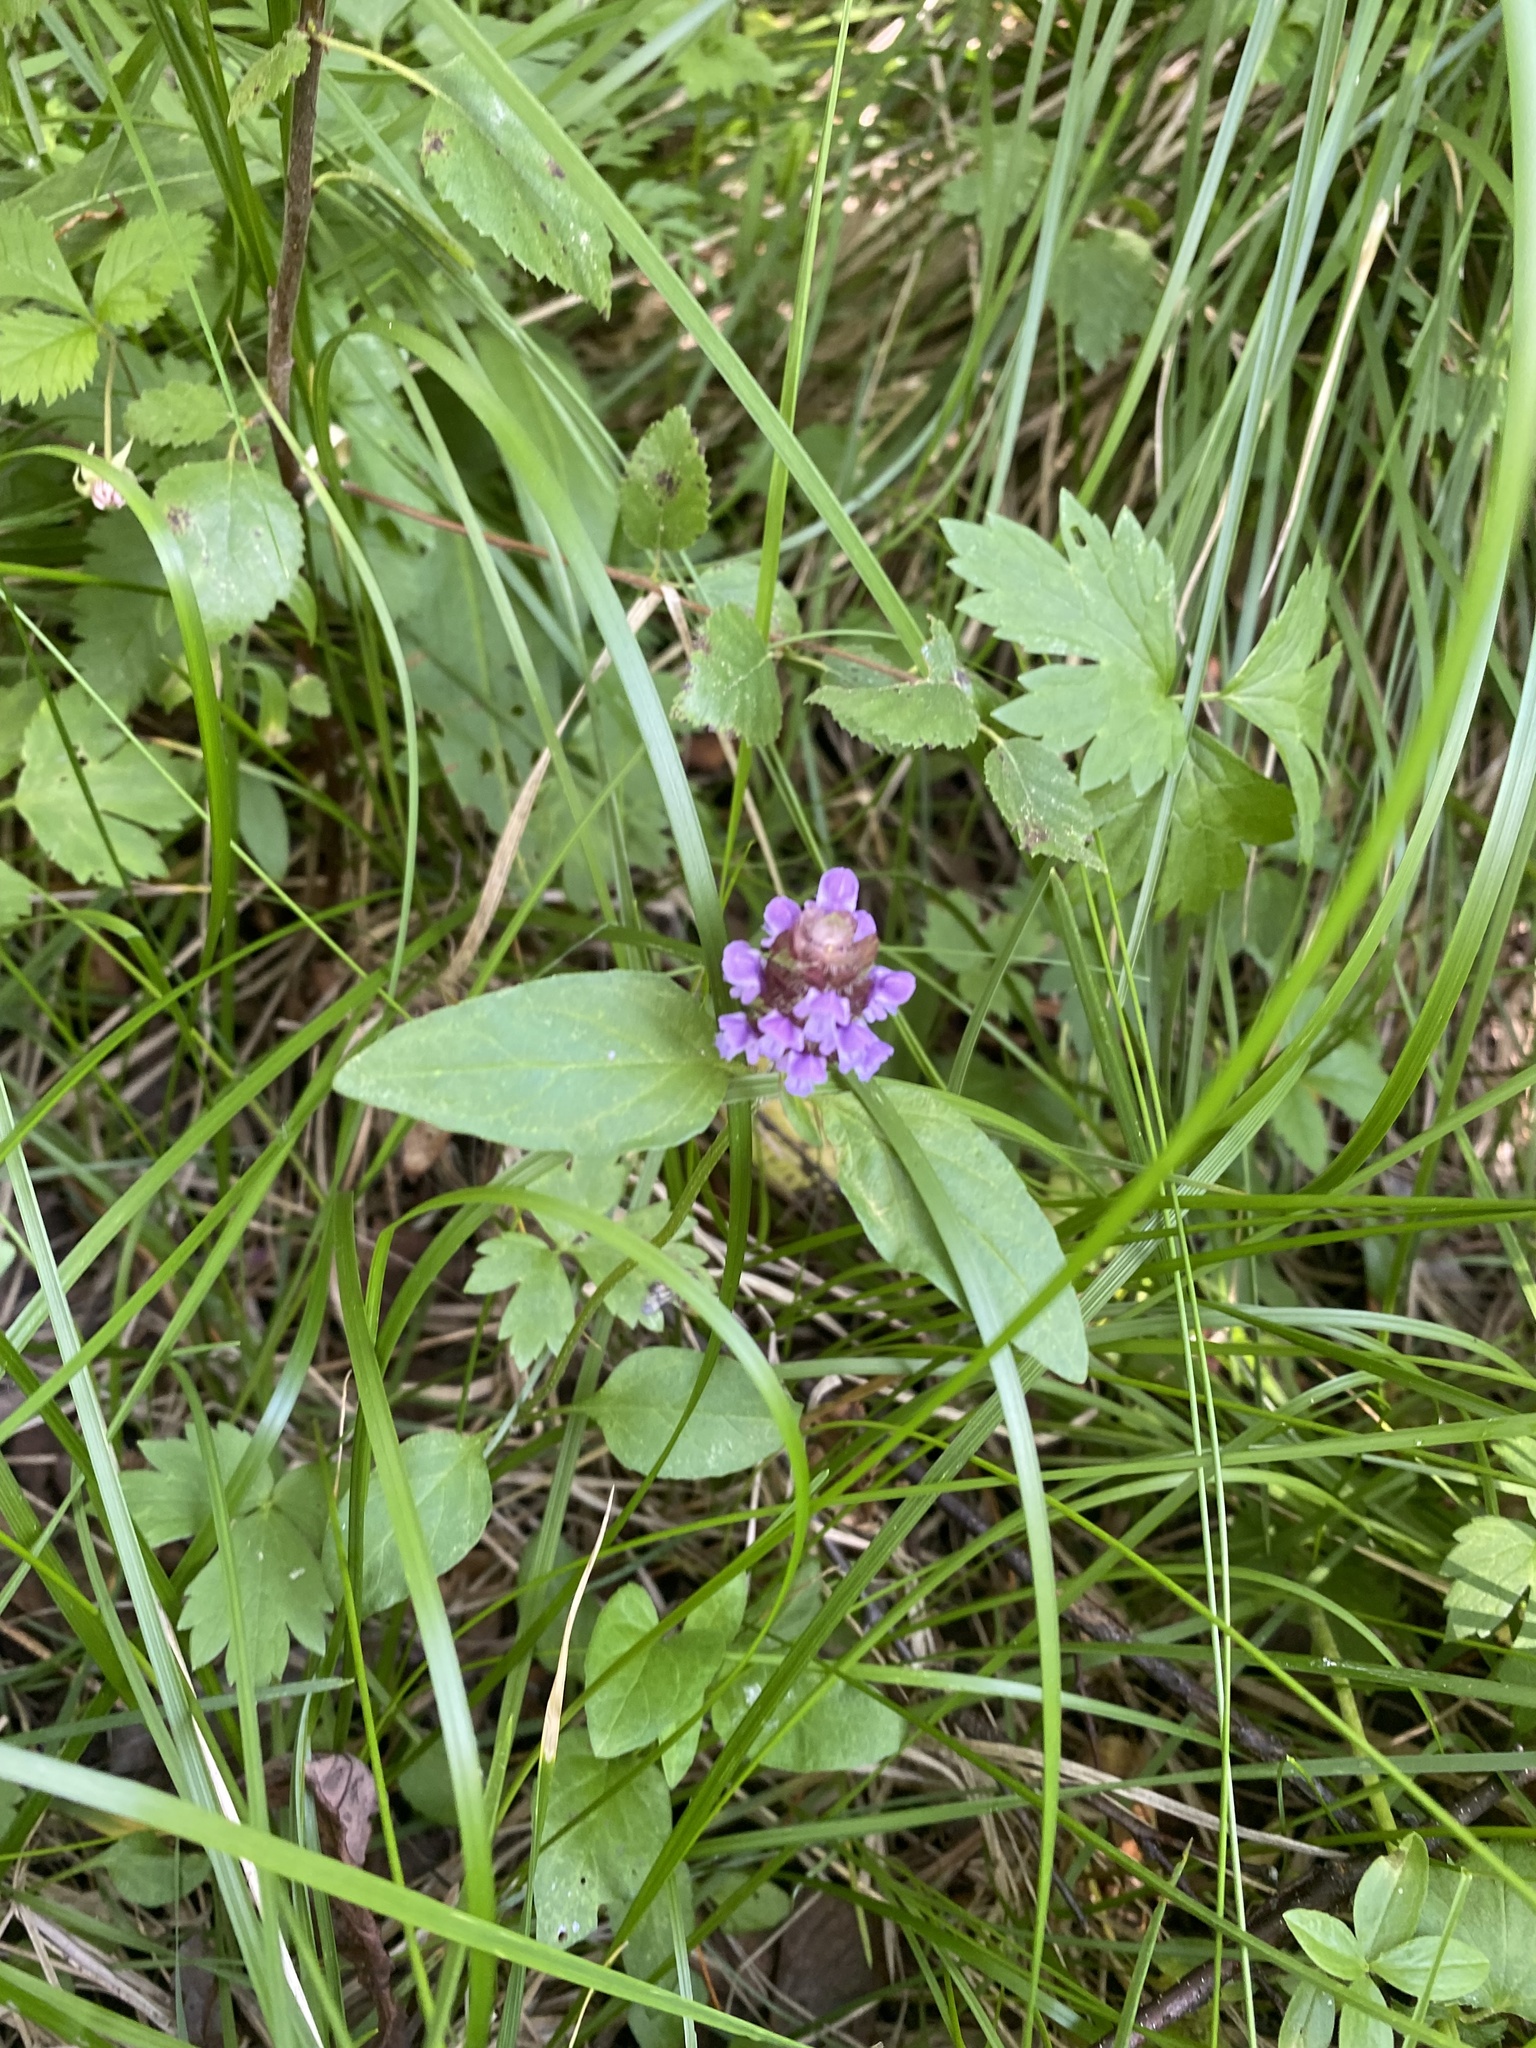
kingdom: Plantae
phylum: Tracheophyta
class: Magnoliopsida
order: Lamiales
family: Lamiaceae
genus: Prunella
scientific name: Prunella vulgaris
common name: Heal-all
